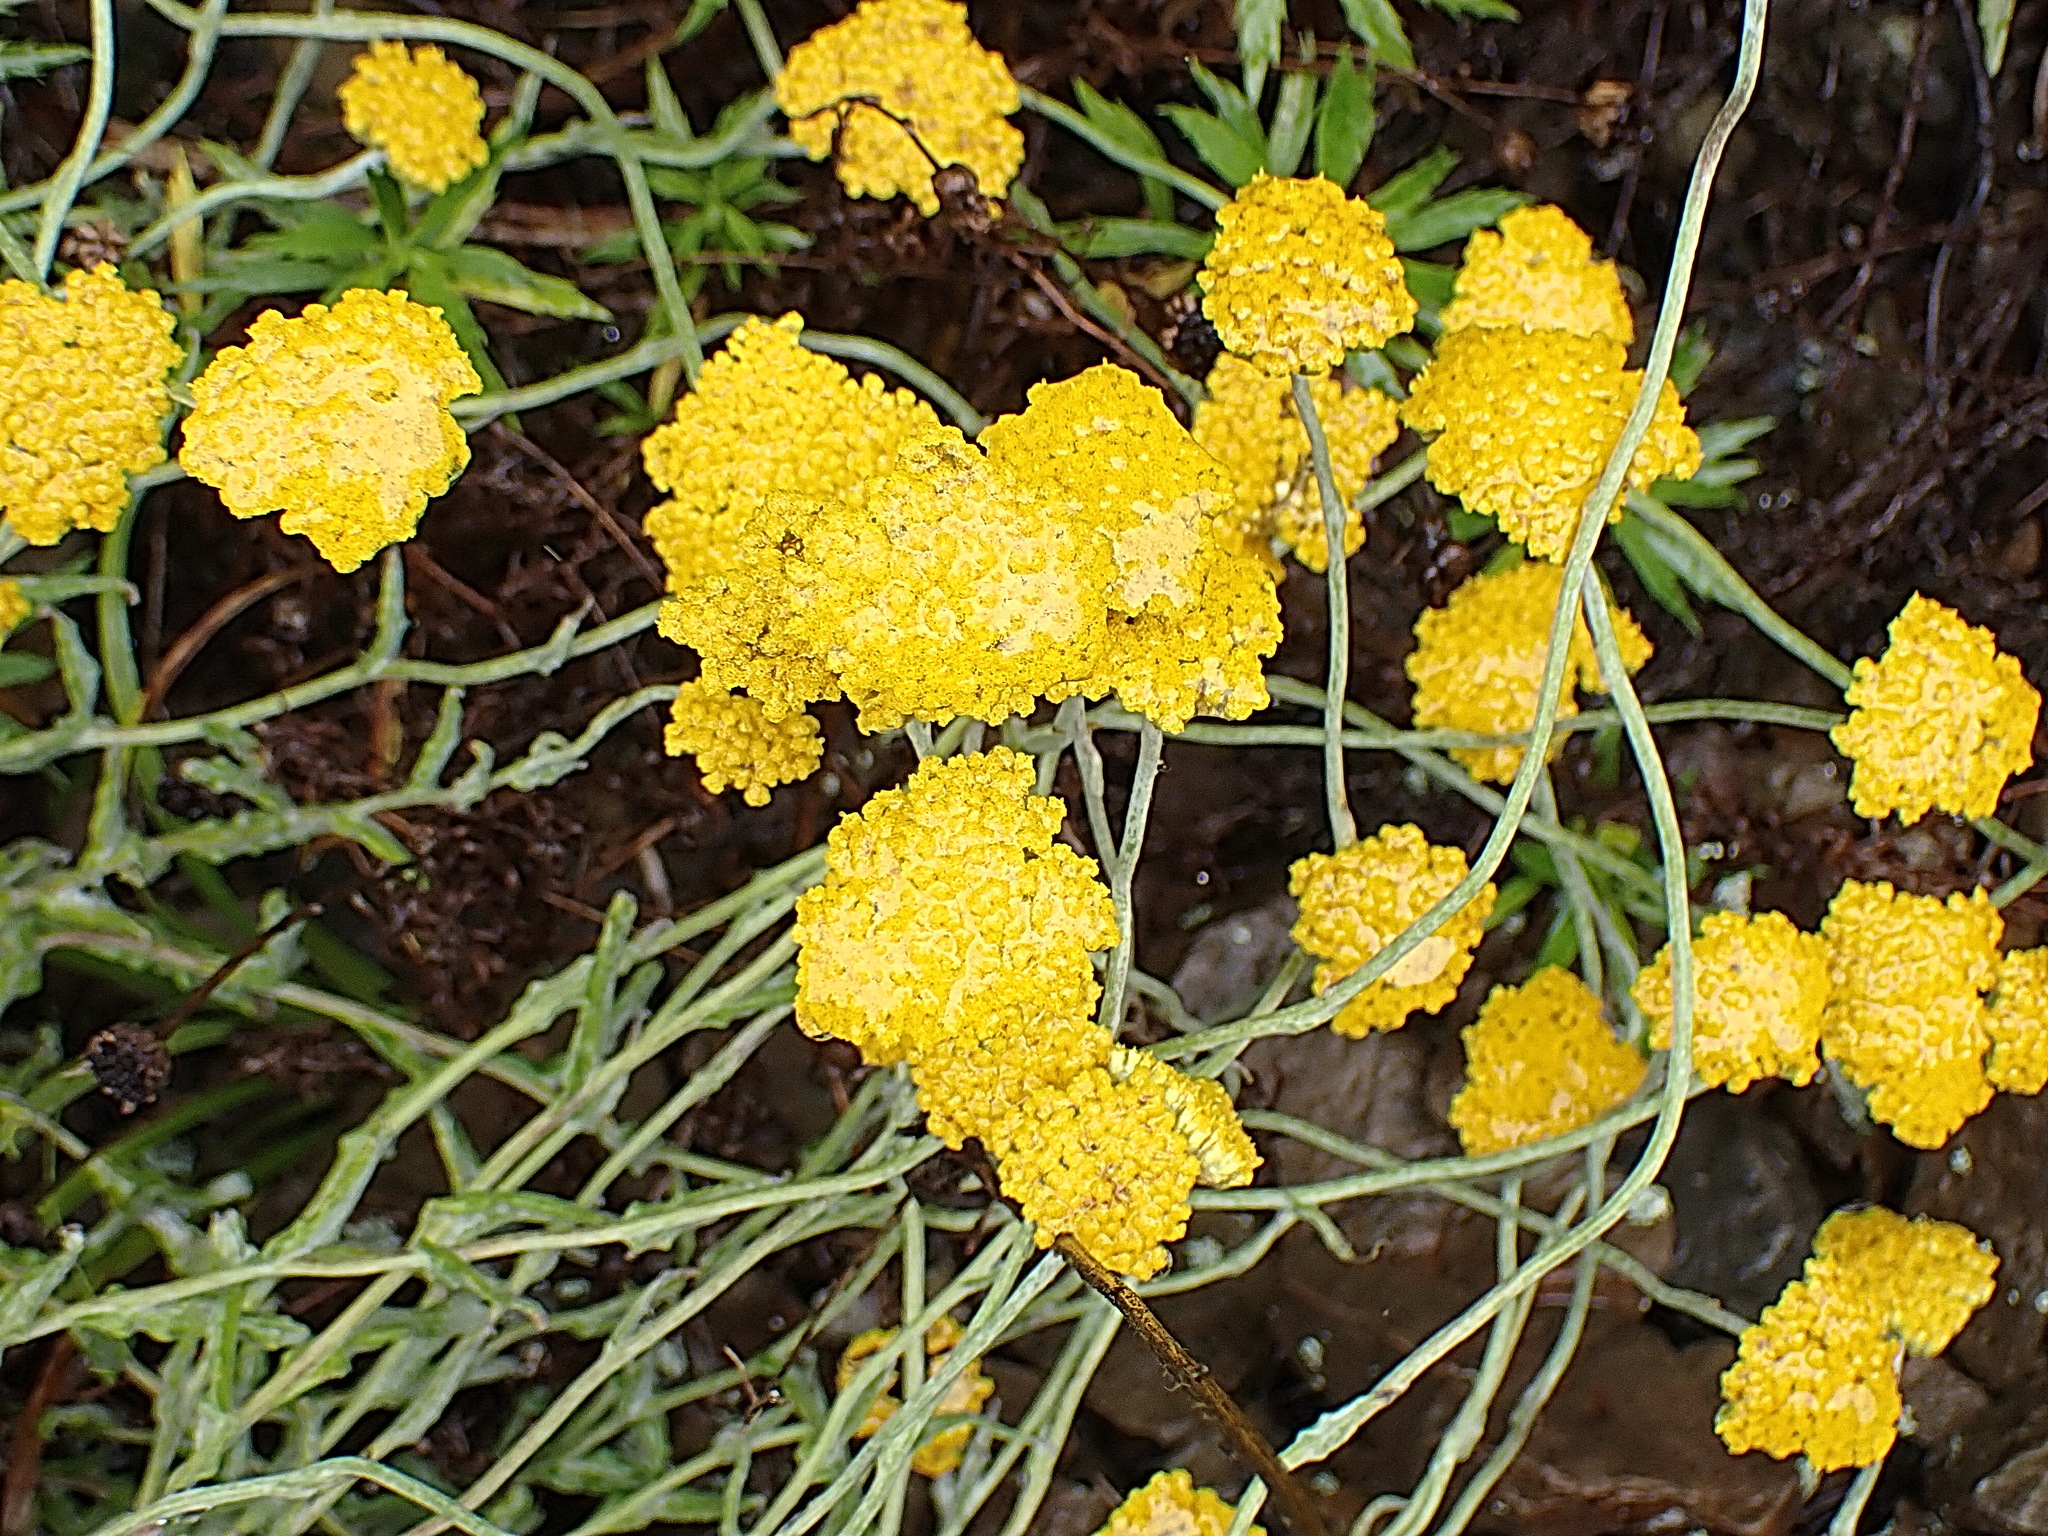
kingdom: Plantae
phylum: Tracheophyta
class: Magnoliopsida
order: Asterales
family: Asteraceae
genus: Helichrysum
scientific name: Helichrysum cymosum
